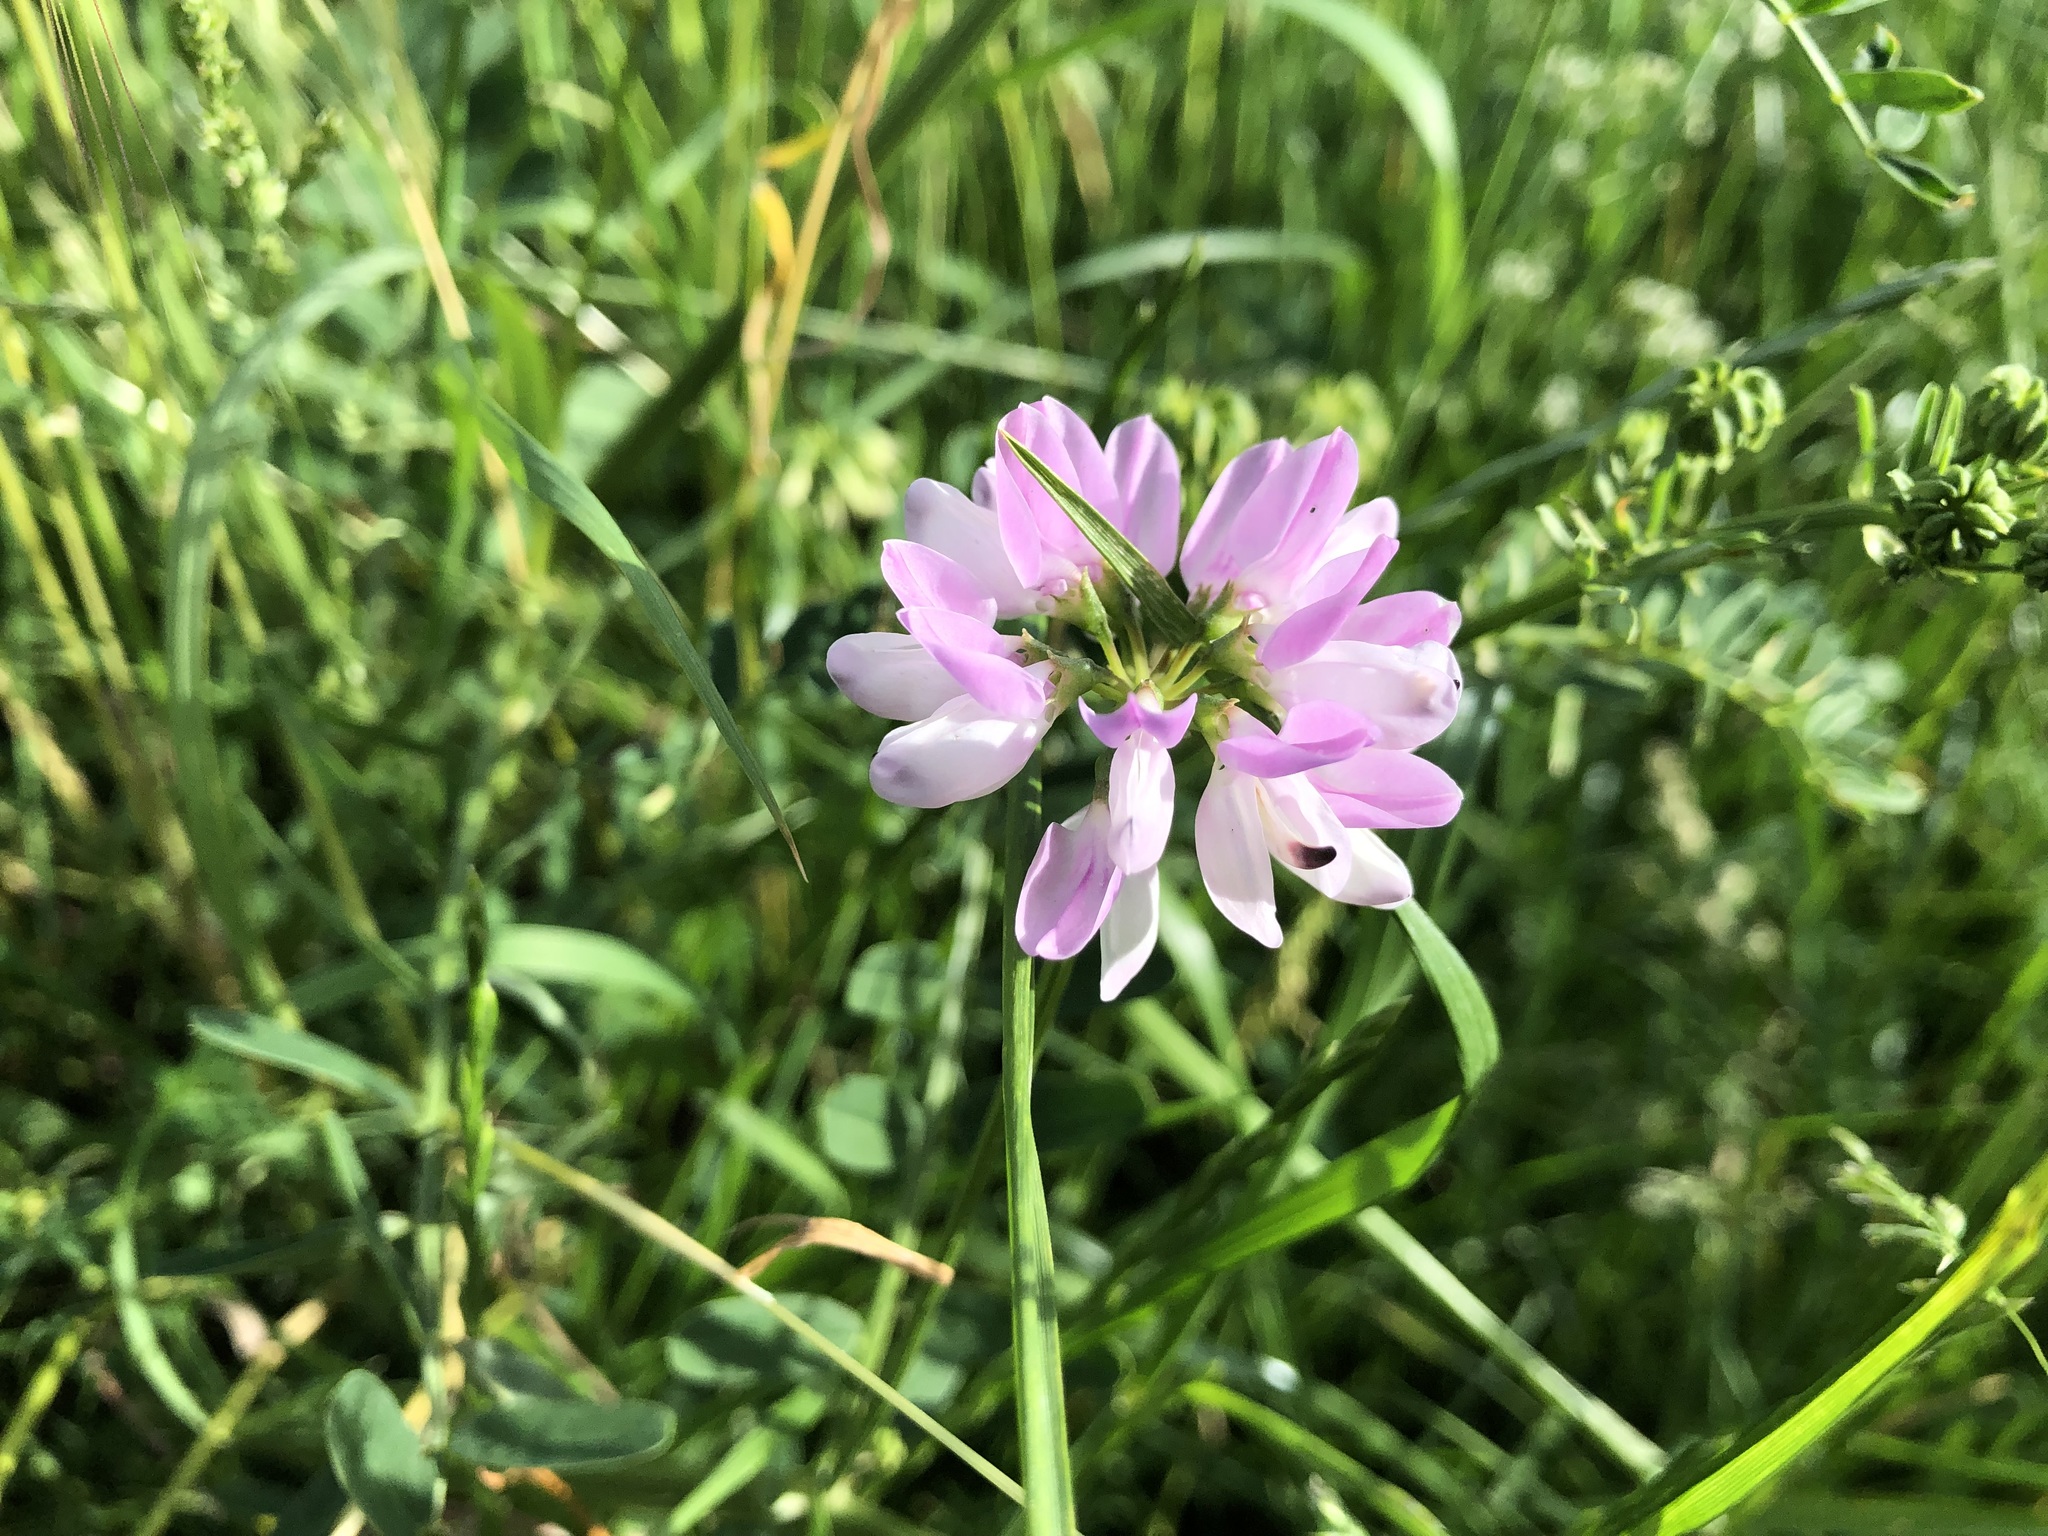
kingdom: Plantae
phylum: Tracheophyta
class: Magnoliopsida
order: Fabales
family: Fabaceae
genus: Coronilla
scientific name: Coronilla varia
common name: Crownvetch
